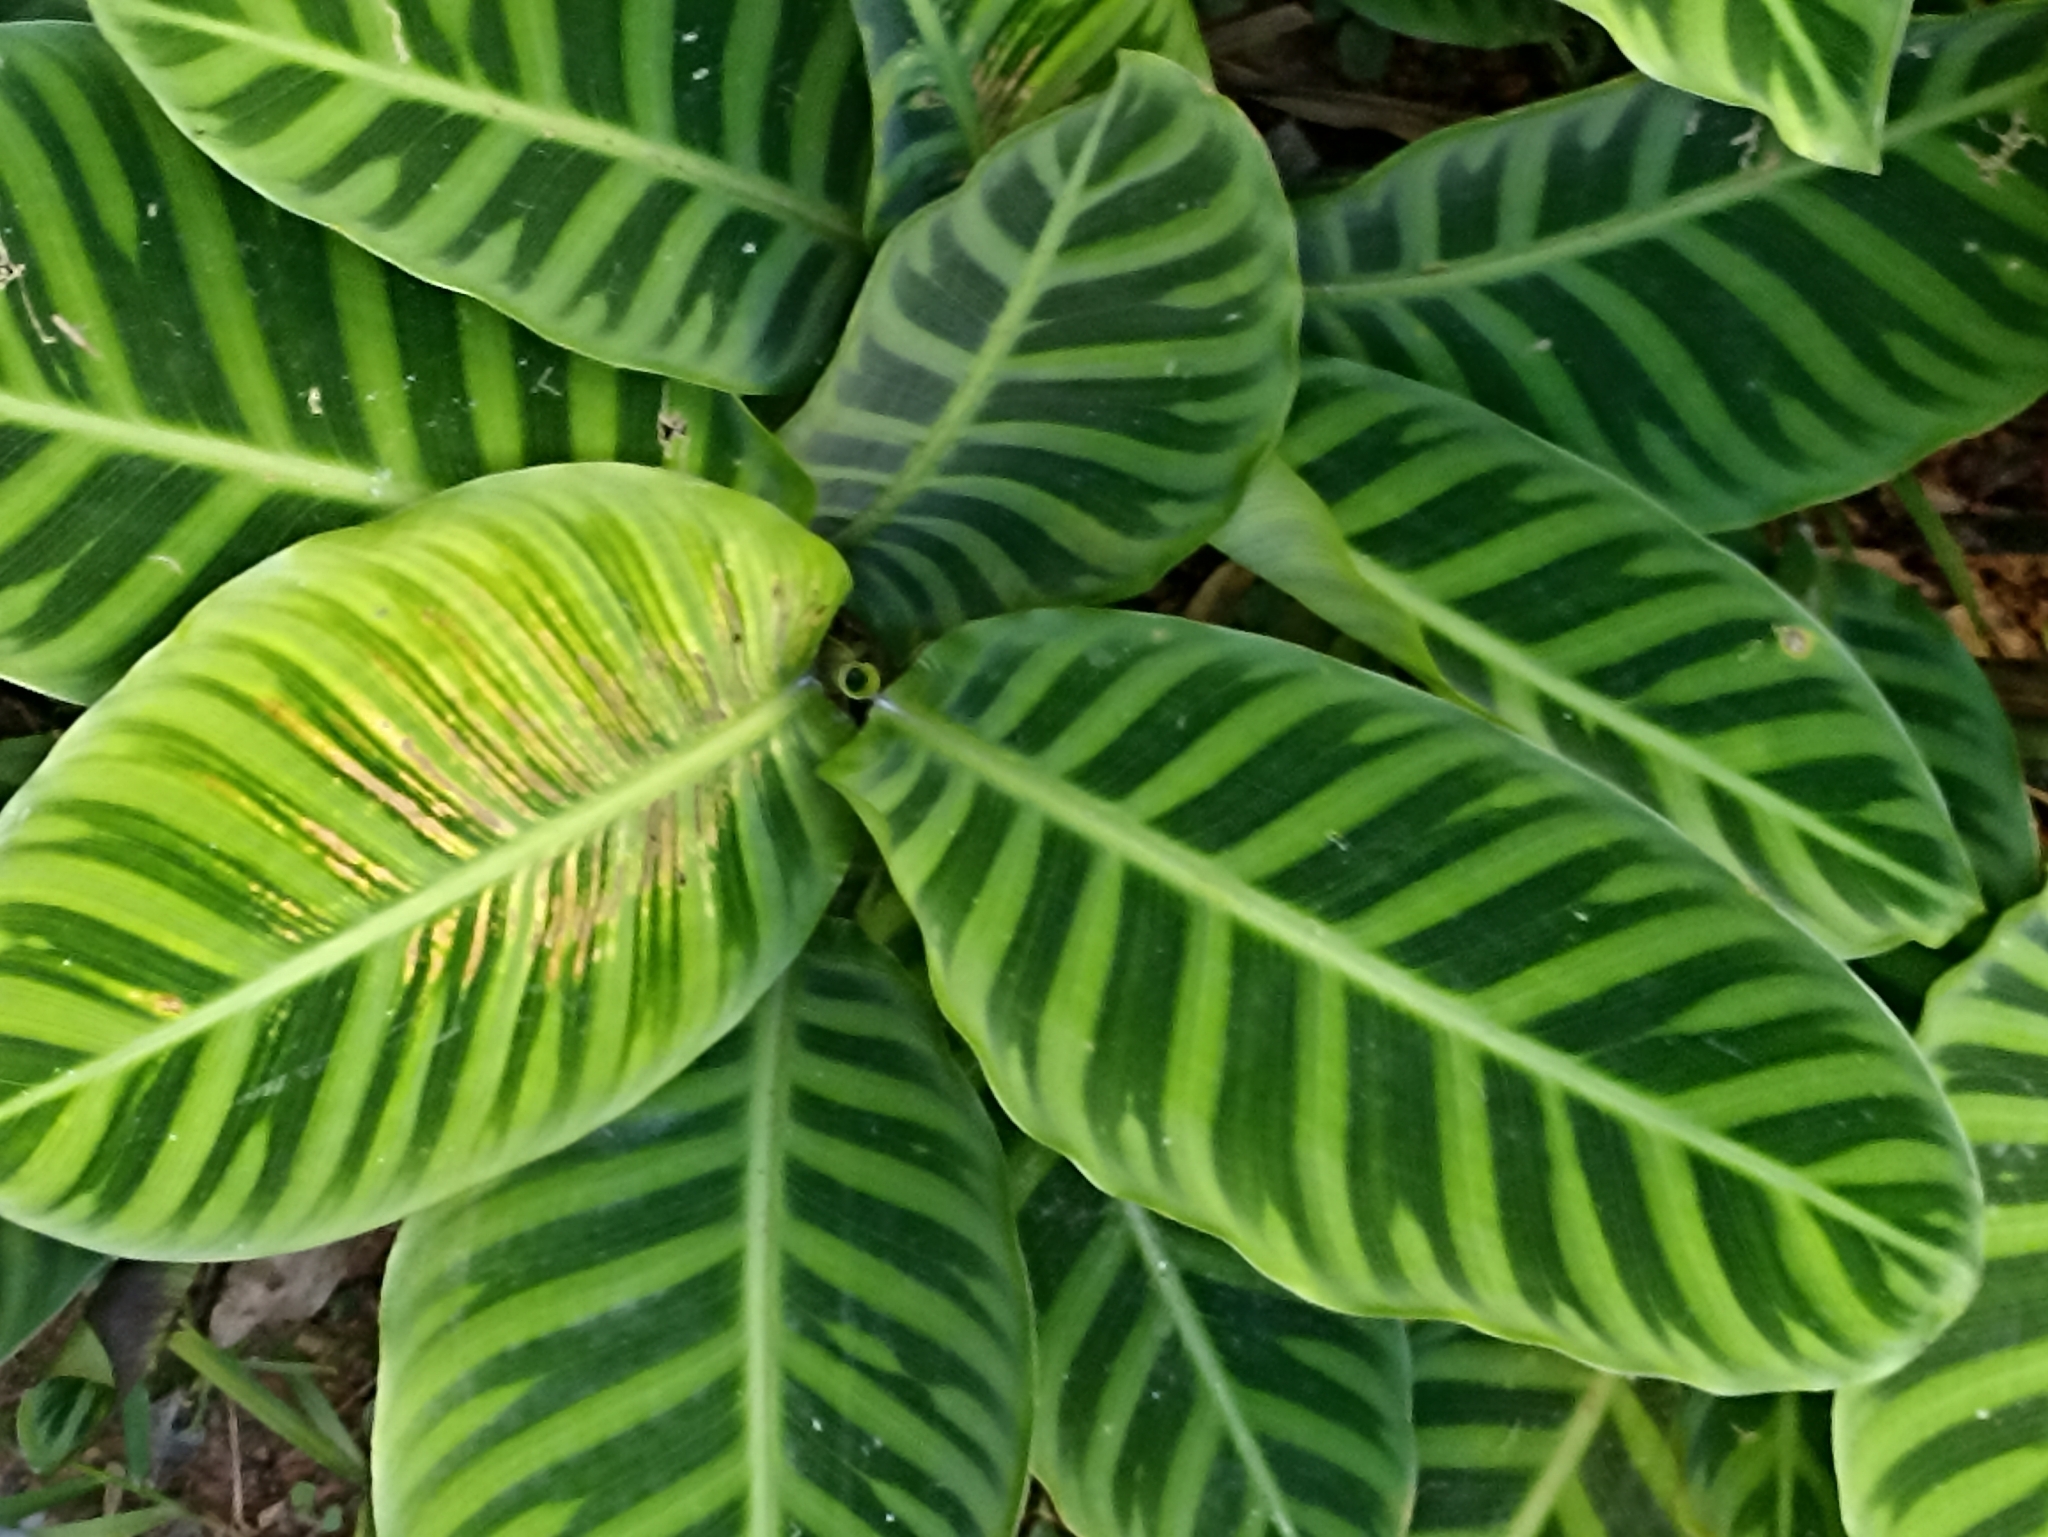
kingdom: Plantae
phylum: Tracheophyta
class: Liliopsida
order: Zingiberales
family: Marantaceae
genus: Goeppertia
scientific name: Goeppertia zebrina
